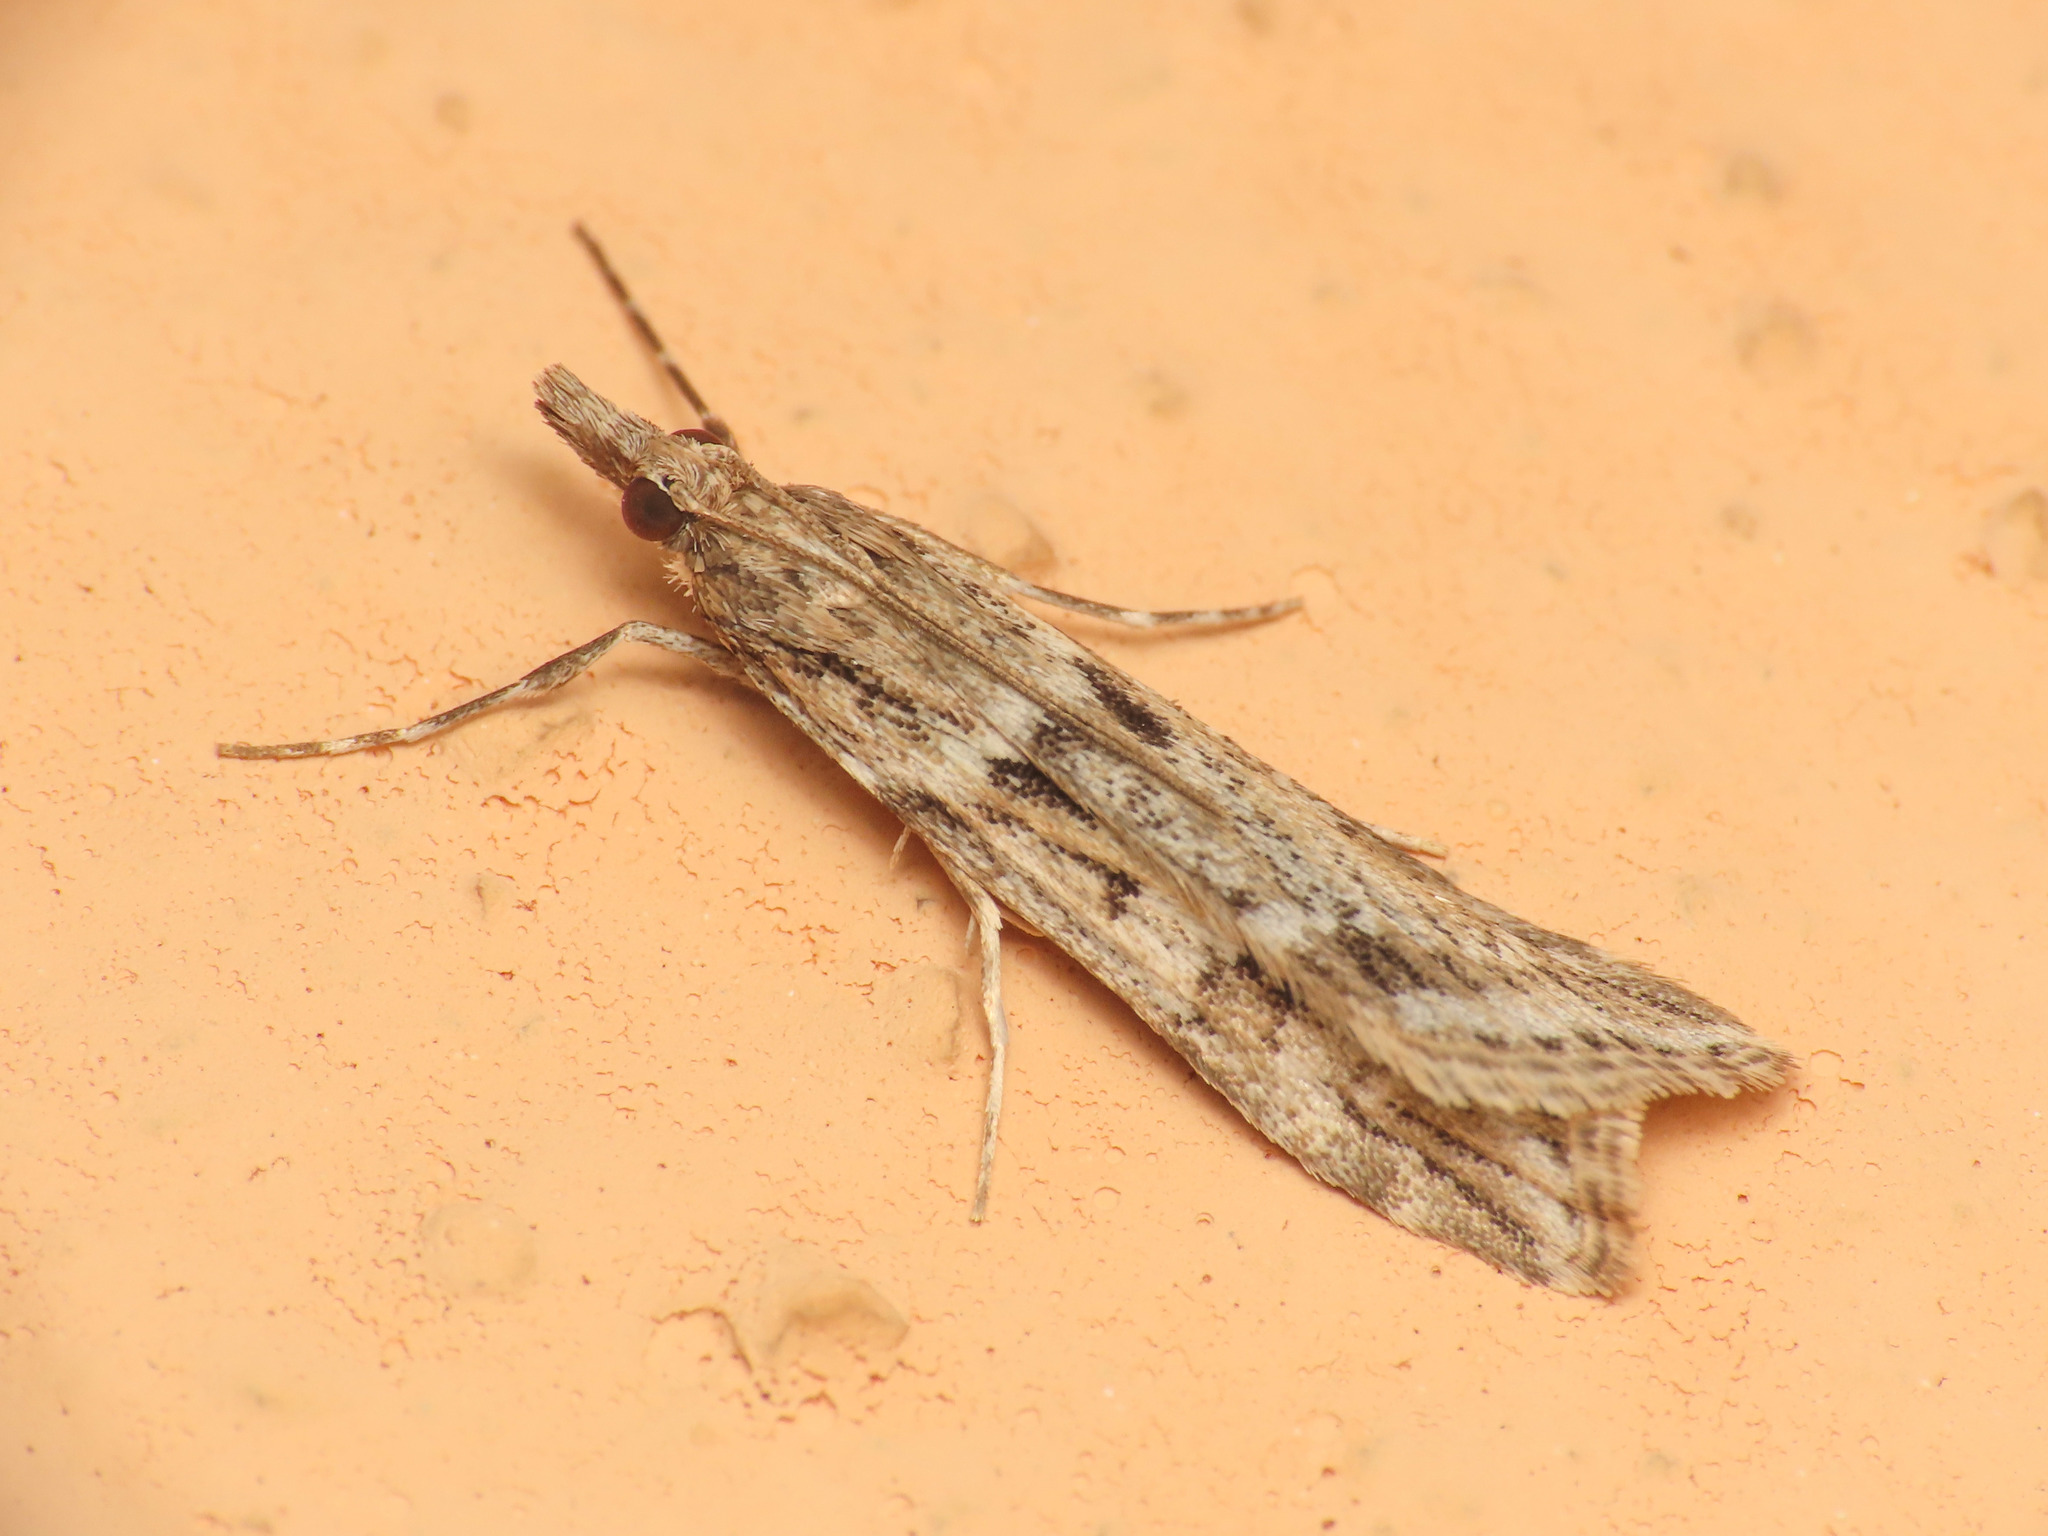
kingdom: Animalia
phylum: Arthropoda
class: Insecta
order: Lepidoptera
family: Crambidae
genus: Eudonia
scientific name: Eudonia angustea
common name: Narrow-winged grey
